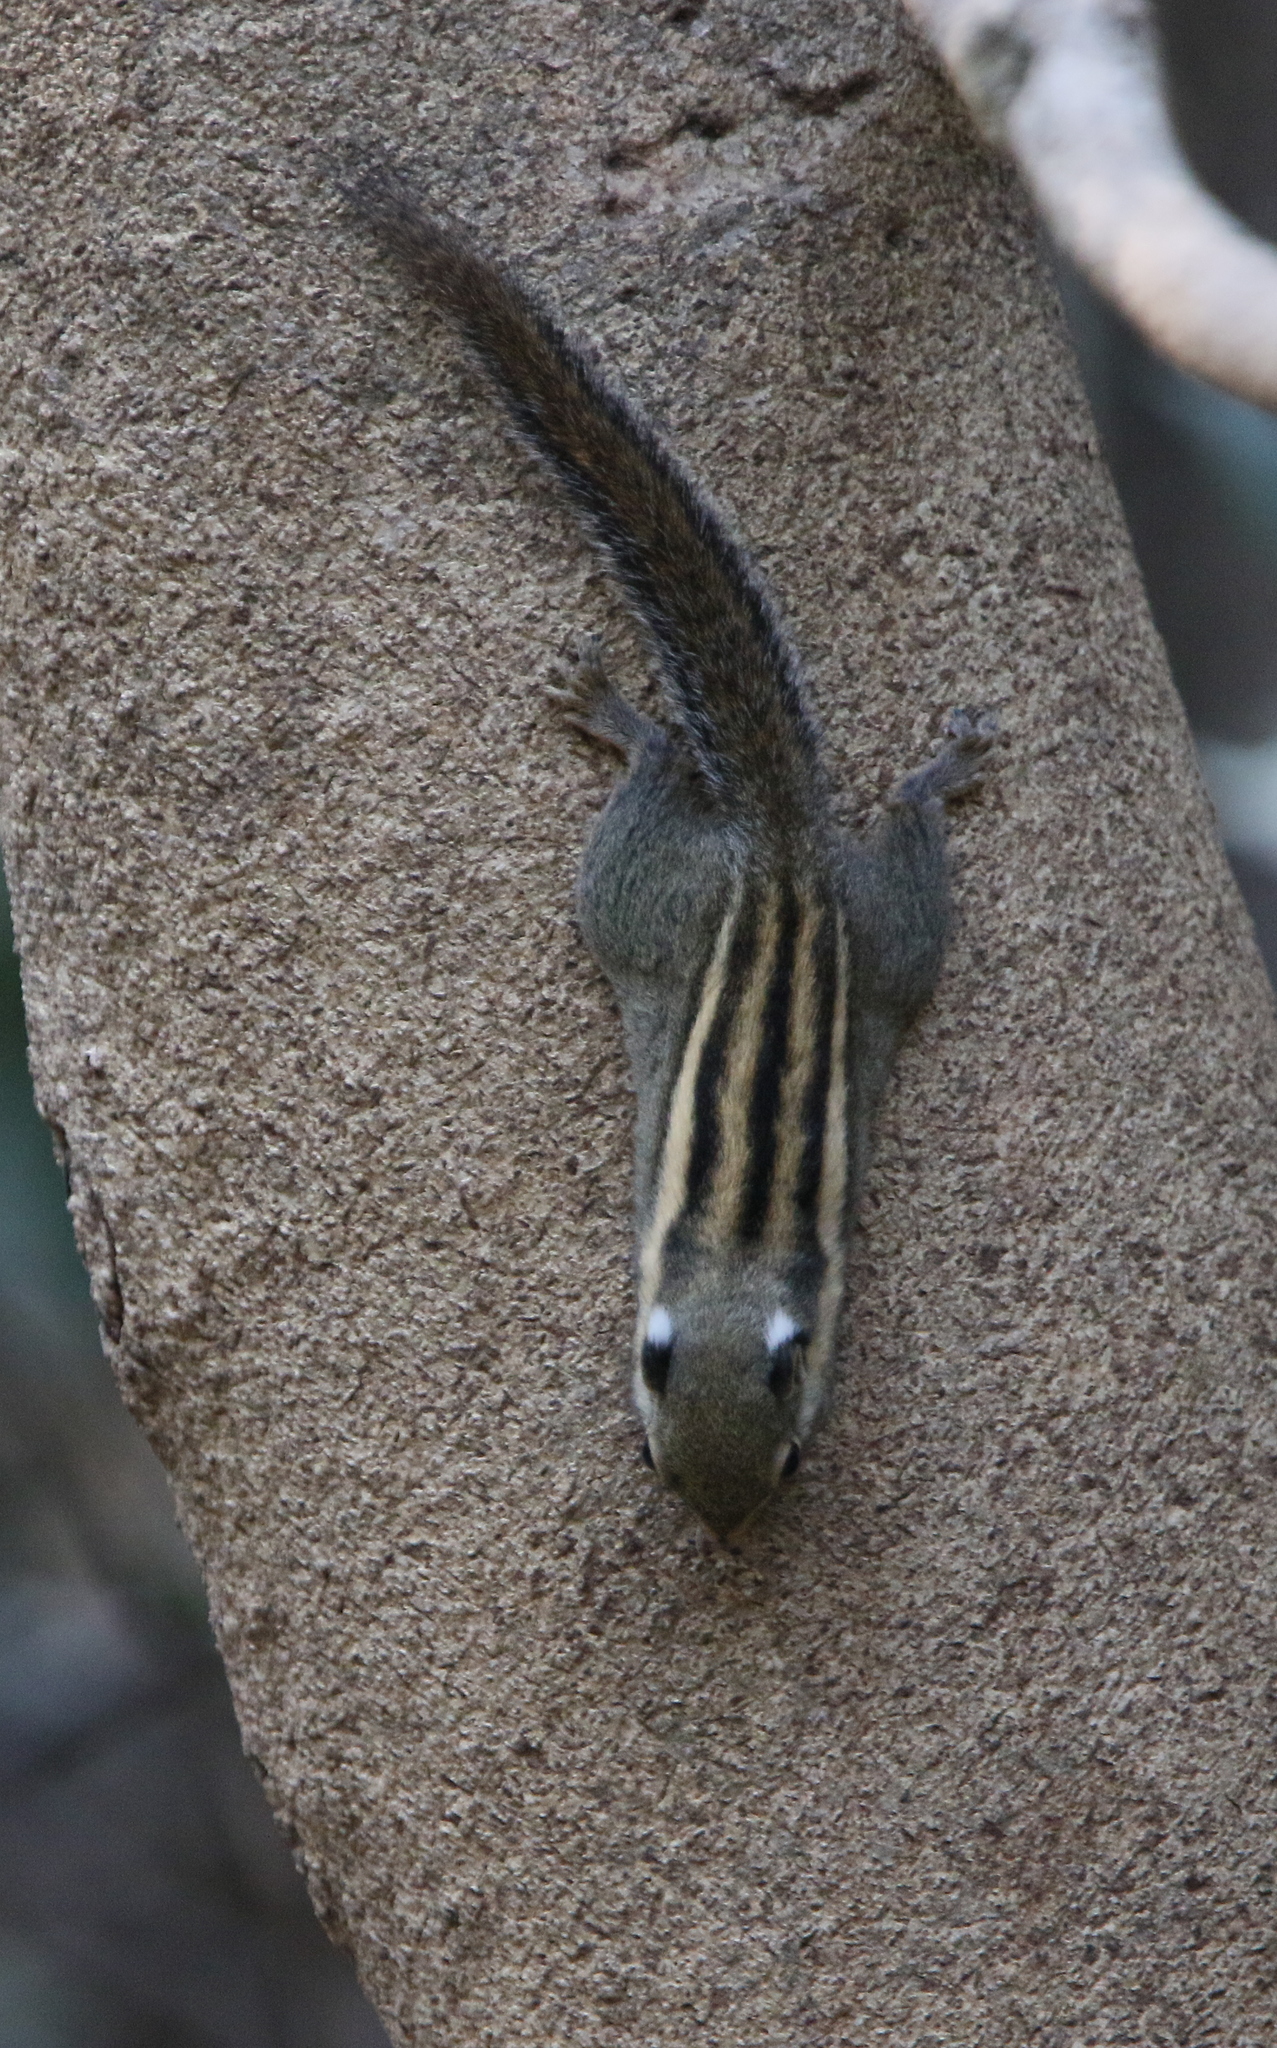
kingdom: Animalia
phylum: Chordata
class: Mammalia
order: Rodentia
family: Sciuridae
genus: Tamiops
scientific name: Tamiops mcclellandii
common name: Himalayan striped squirrel
